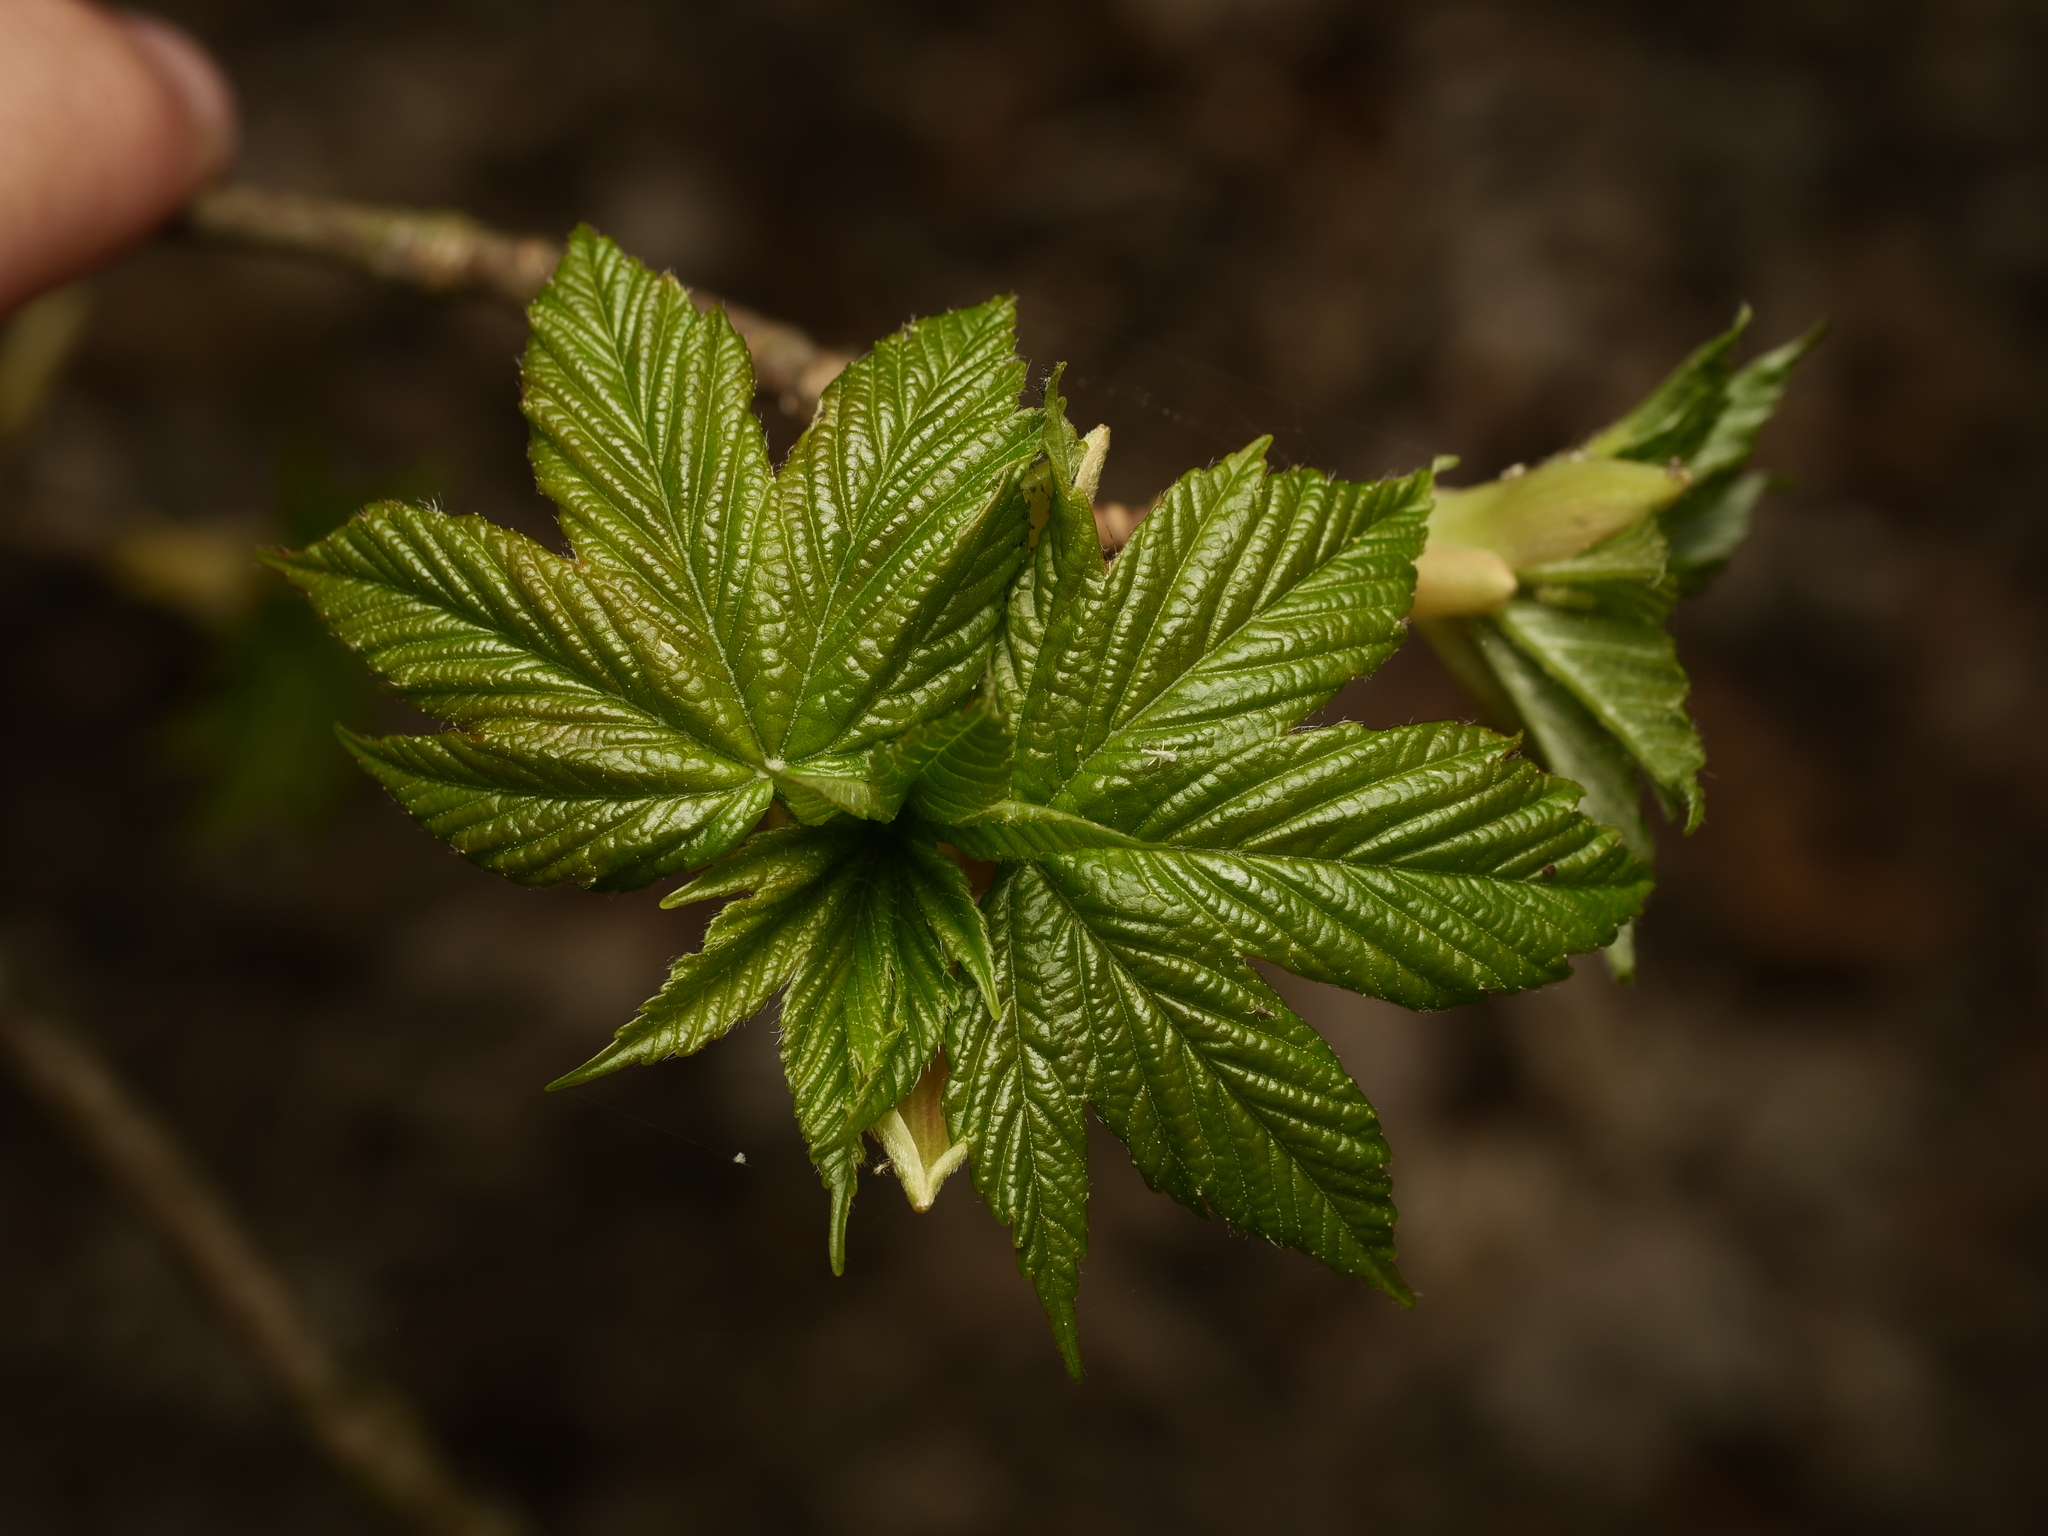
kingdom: Plantae
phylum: Tracheophyta
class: Magnoliopsida
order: Sapindales
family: Sapindaceae
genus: Acer
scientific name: Acer pseudoplatanus
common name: Sycamore
